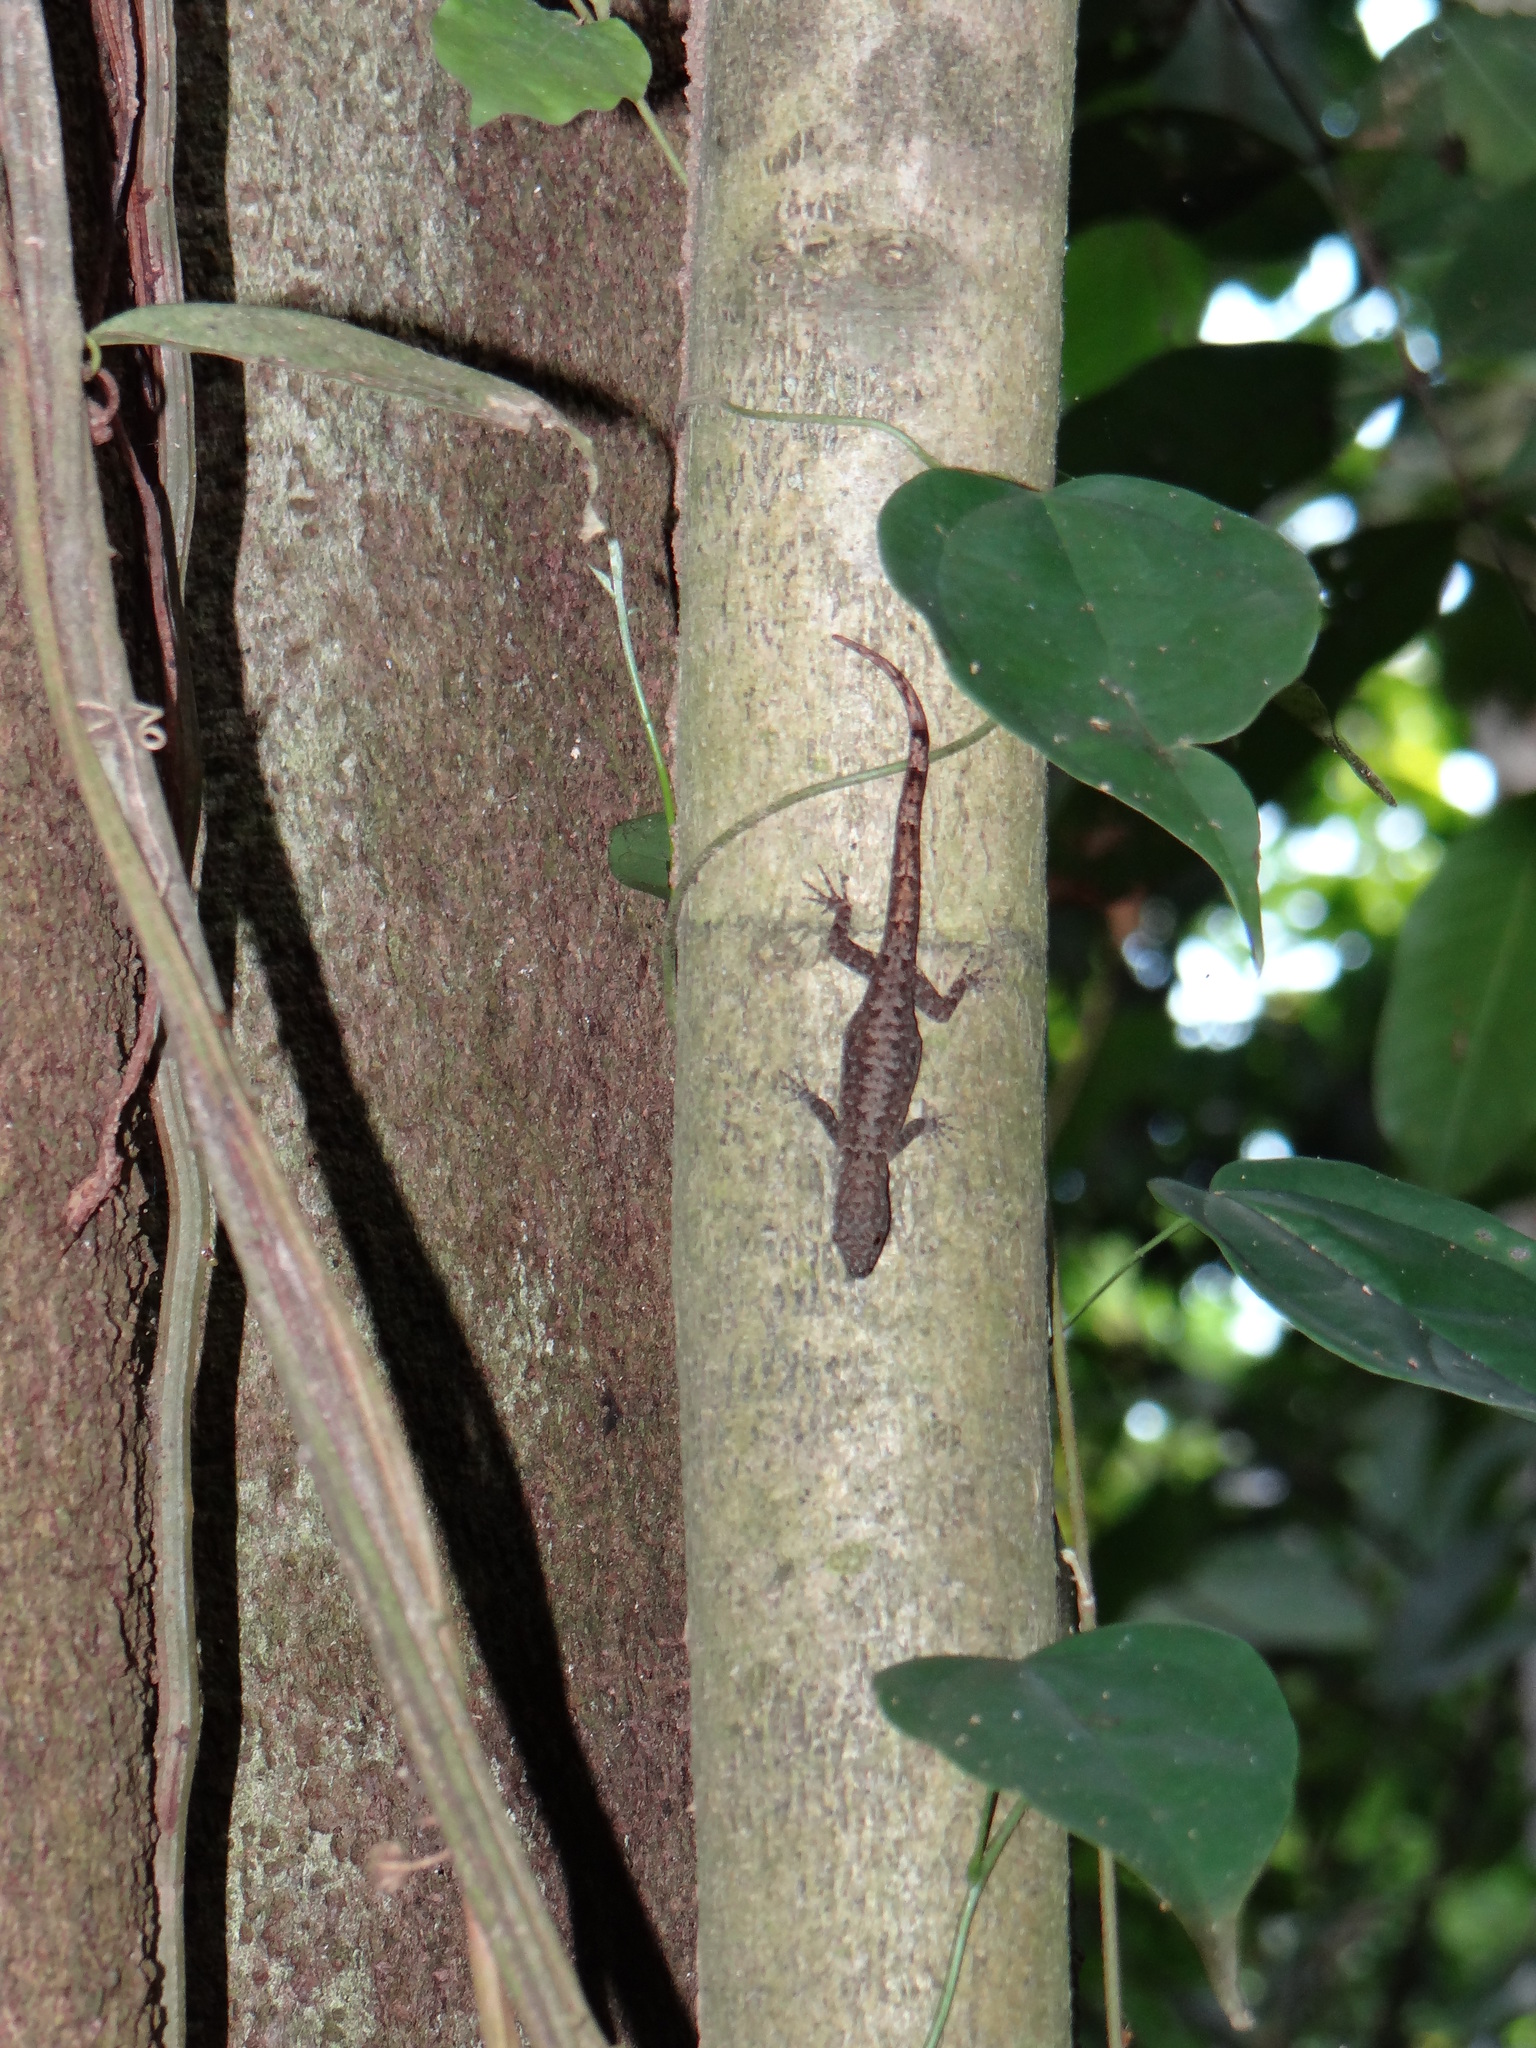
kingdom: Animalia
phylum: Chordata
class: Squamata
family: Sphaerodactylidae
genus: Gonatodes
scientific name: Gonatodes humeralis
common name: South american clawed gecko
